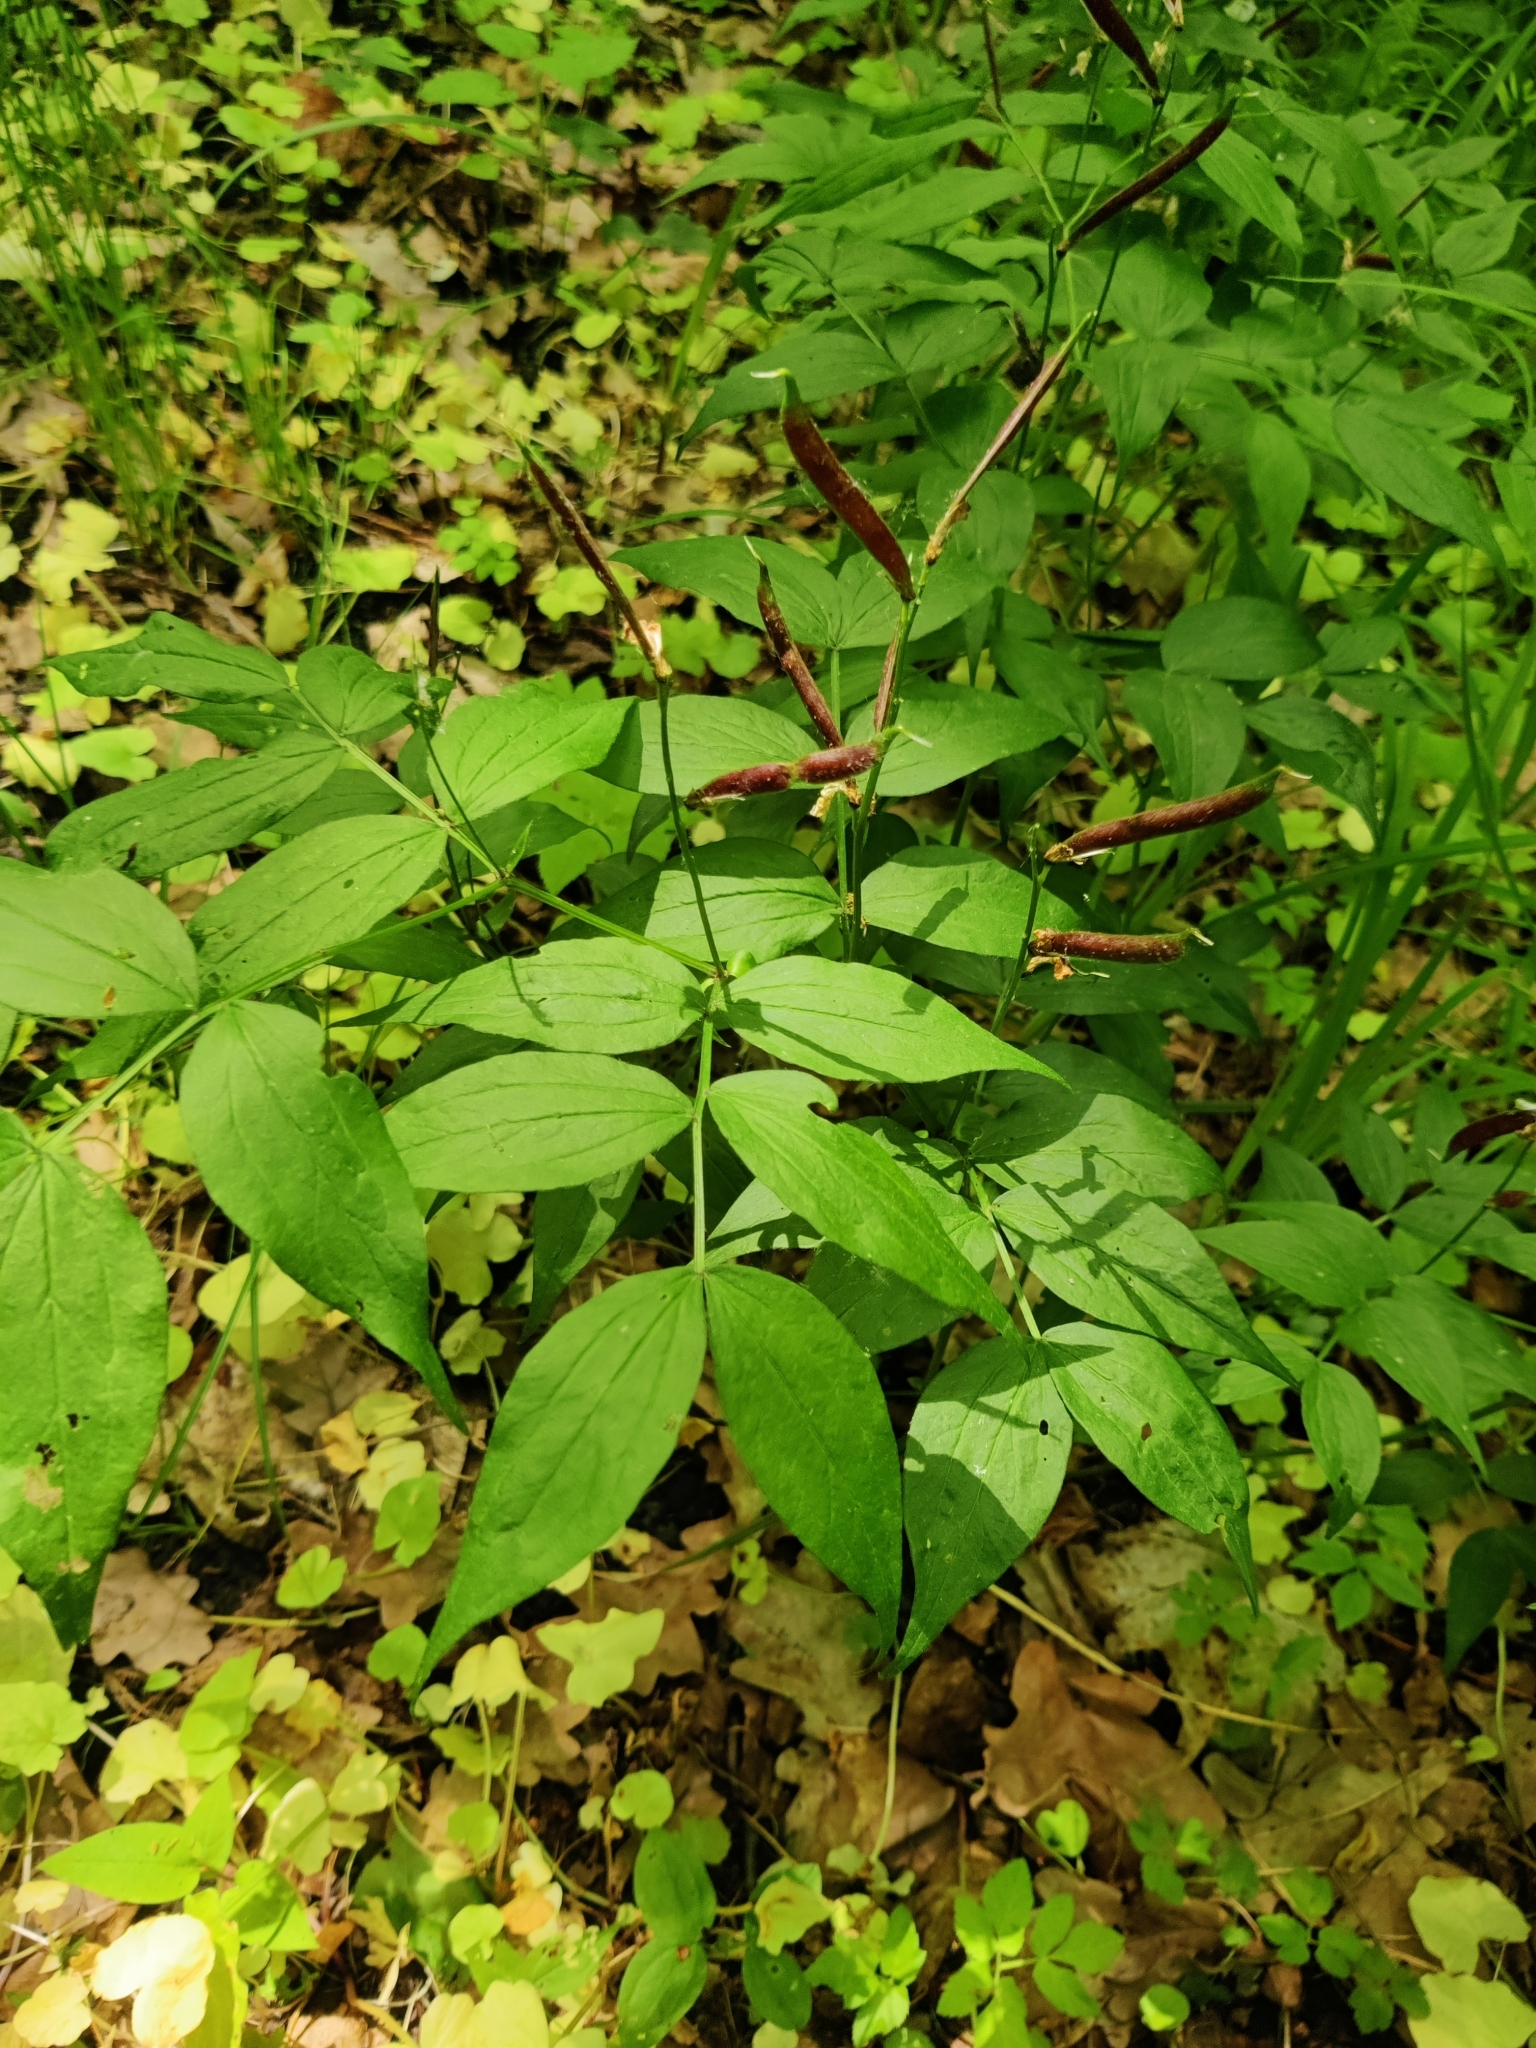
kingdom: Plantae
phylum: Tracheophyta
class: Magnoliopsida
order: Fabales
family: Fabaceae
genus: Lathyrus
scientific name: Lathyrus vernus
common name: Spring pea
